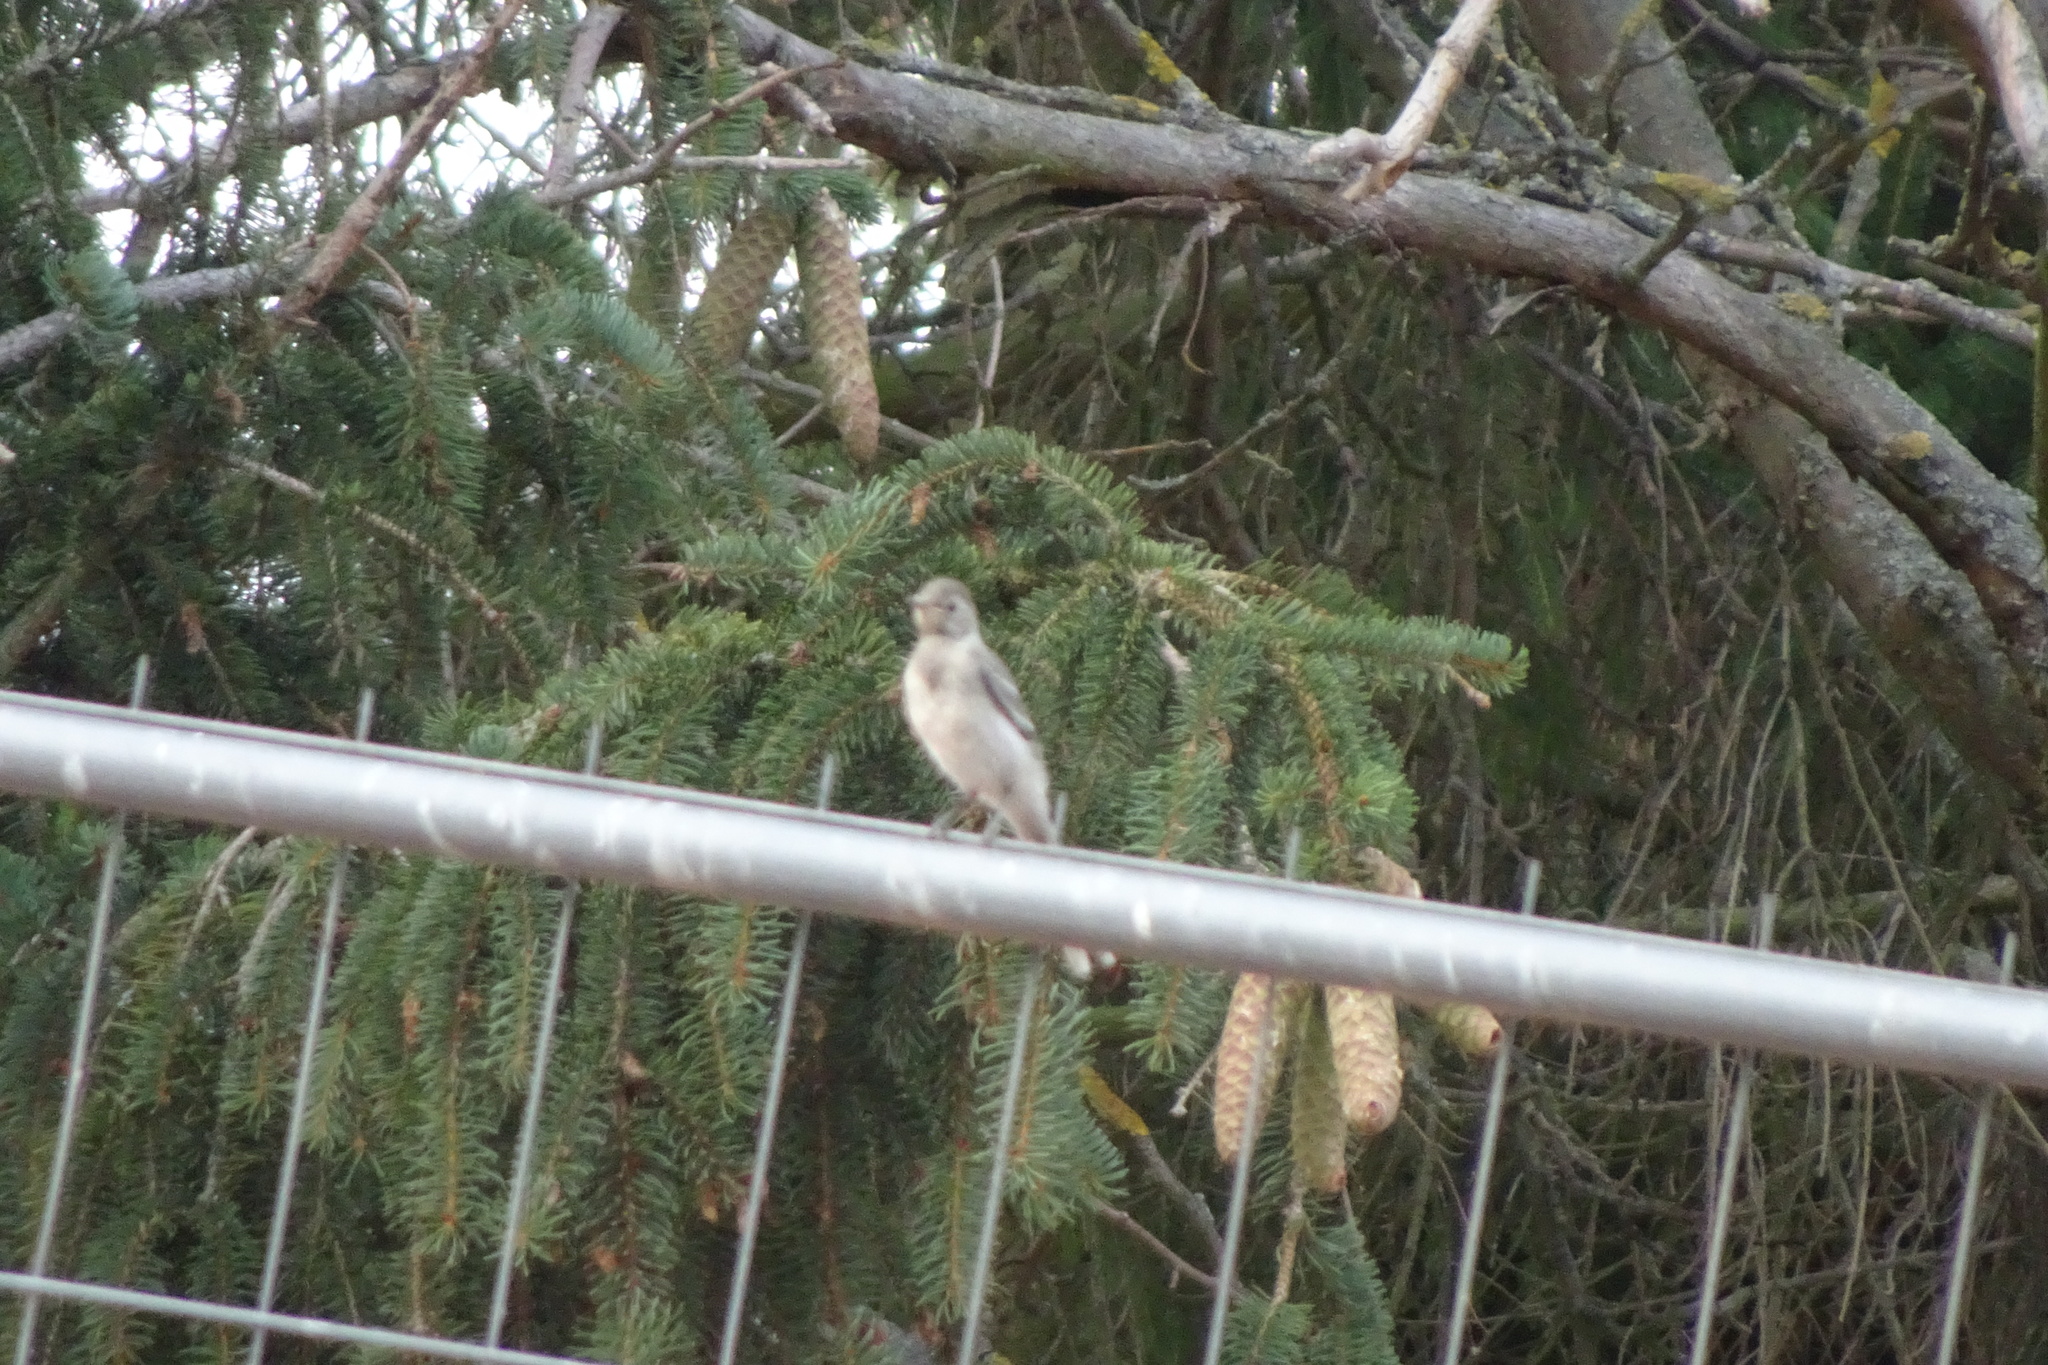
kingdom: Animalia
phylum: Chordata
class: Aves
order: Passeriformes
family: Motacillidae
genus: Motacilla
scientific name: Motacilla alba
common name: White wagtail
